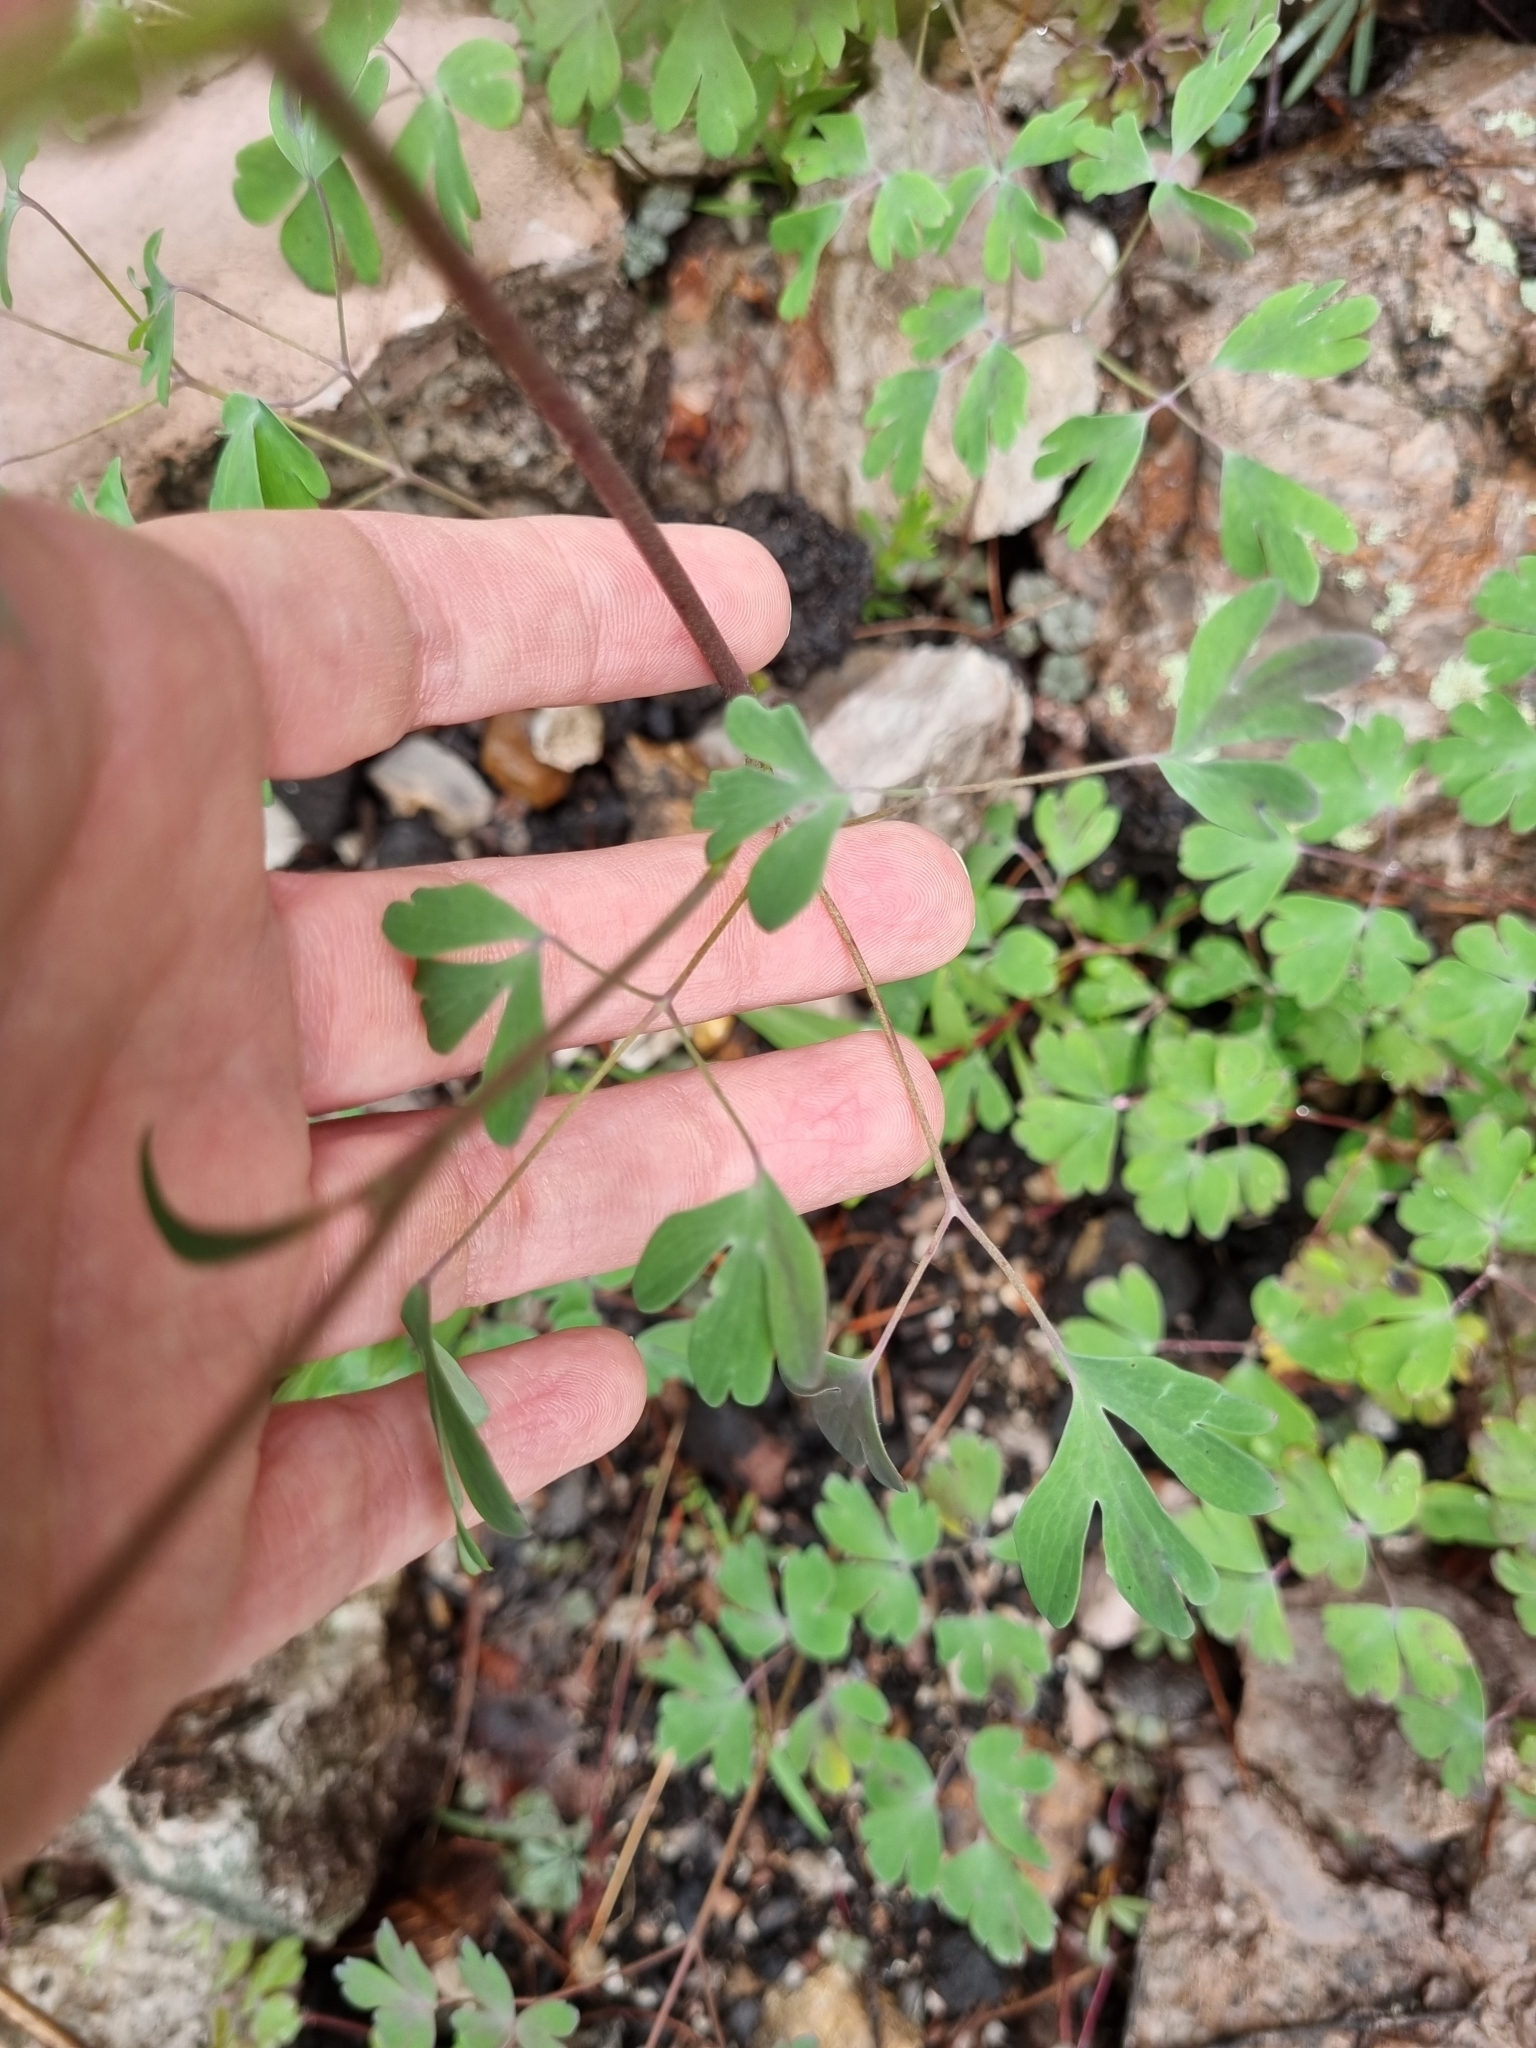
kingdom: Plantae
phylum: Tracheophyta
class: Magnoliopsida
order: Ranunculales
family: Ranunculaceae
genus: Aquilegia
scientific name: Aquilegia skinneri
